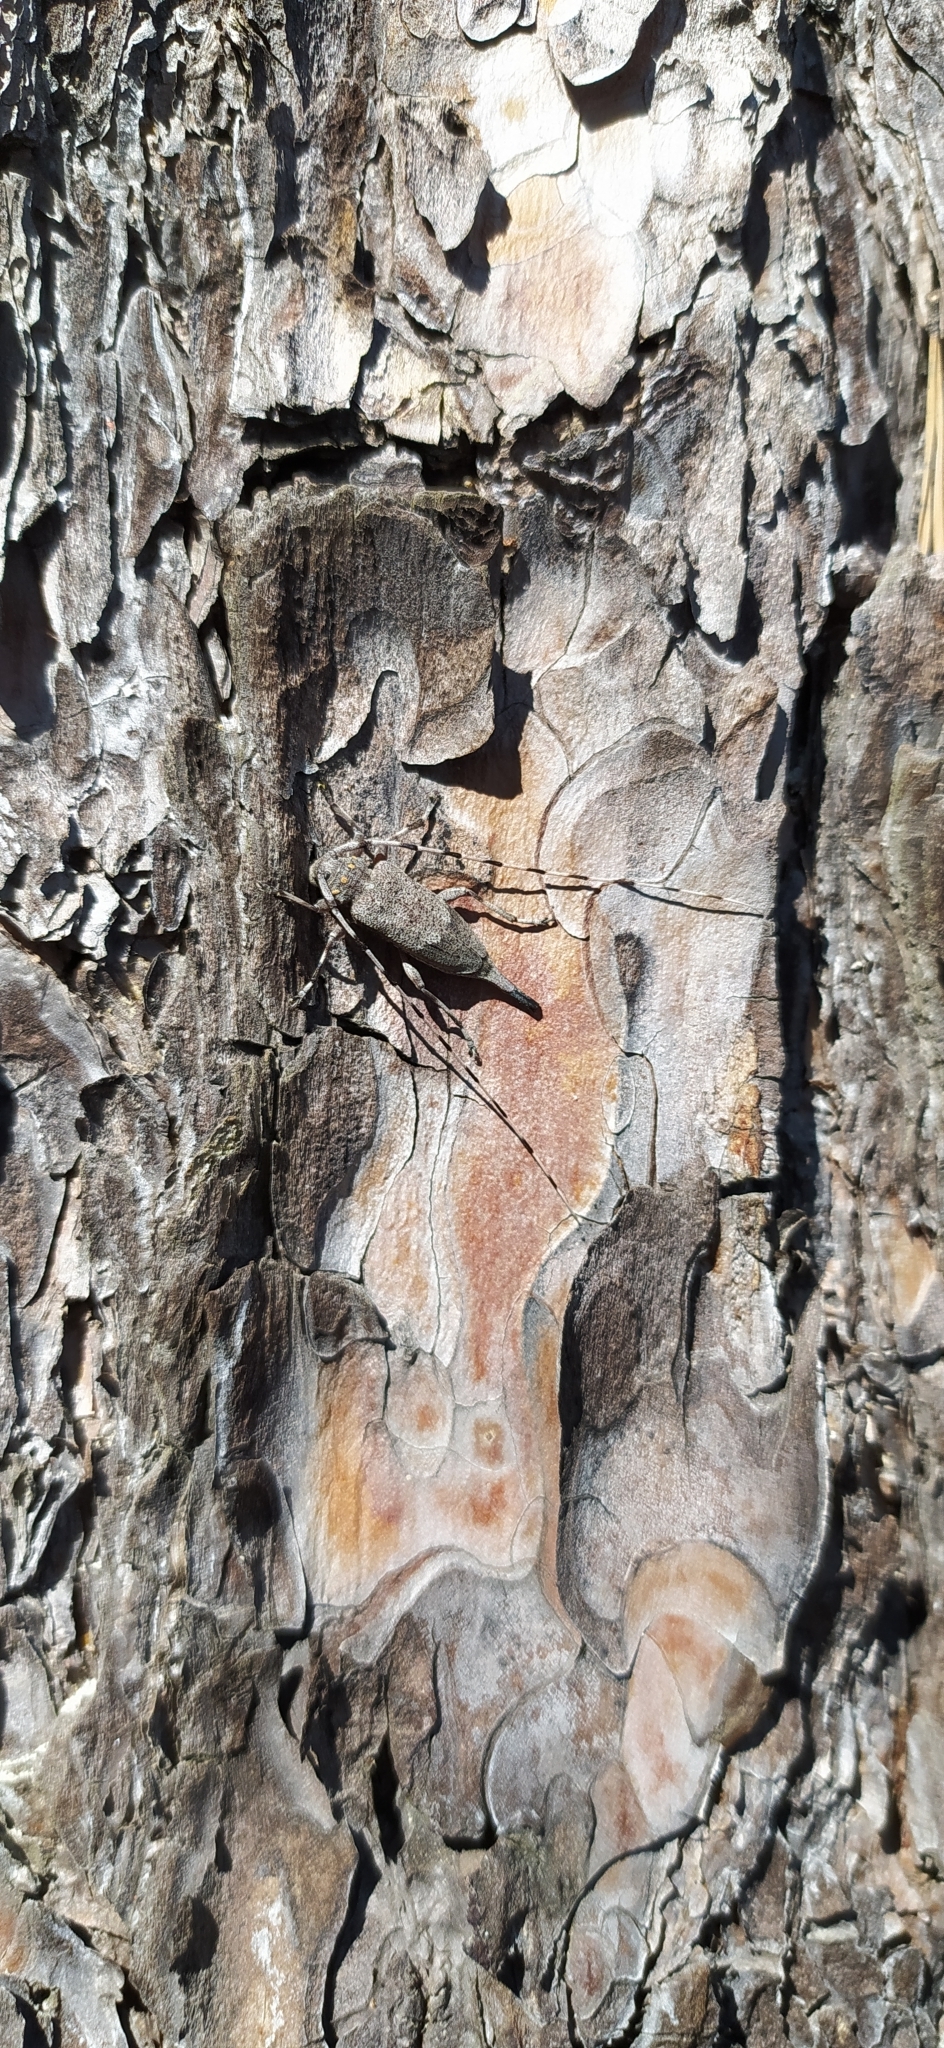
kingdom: Animalia
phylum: Arthropoda
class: Insecta
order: Coleoptera
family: Cerambycidae
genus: Acanthocinus
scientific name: Acanthocinus aedilis
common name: Timberman beetle
